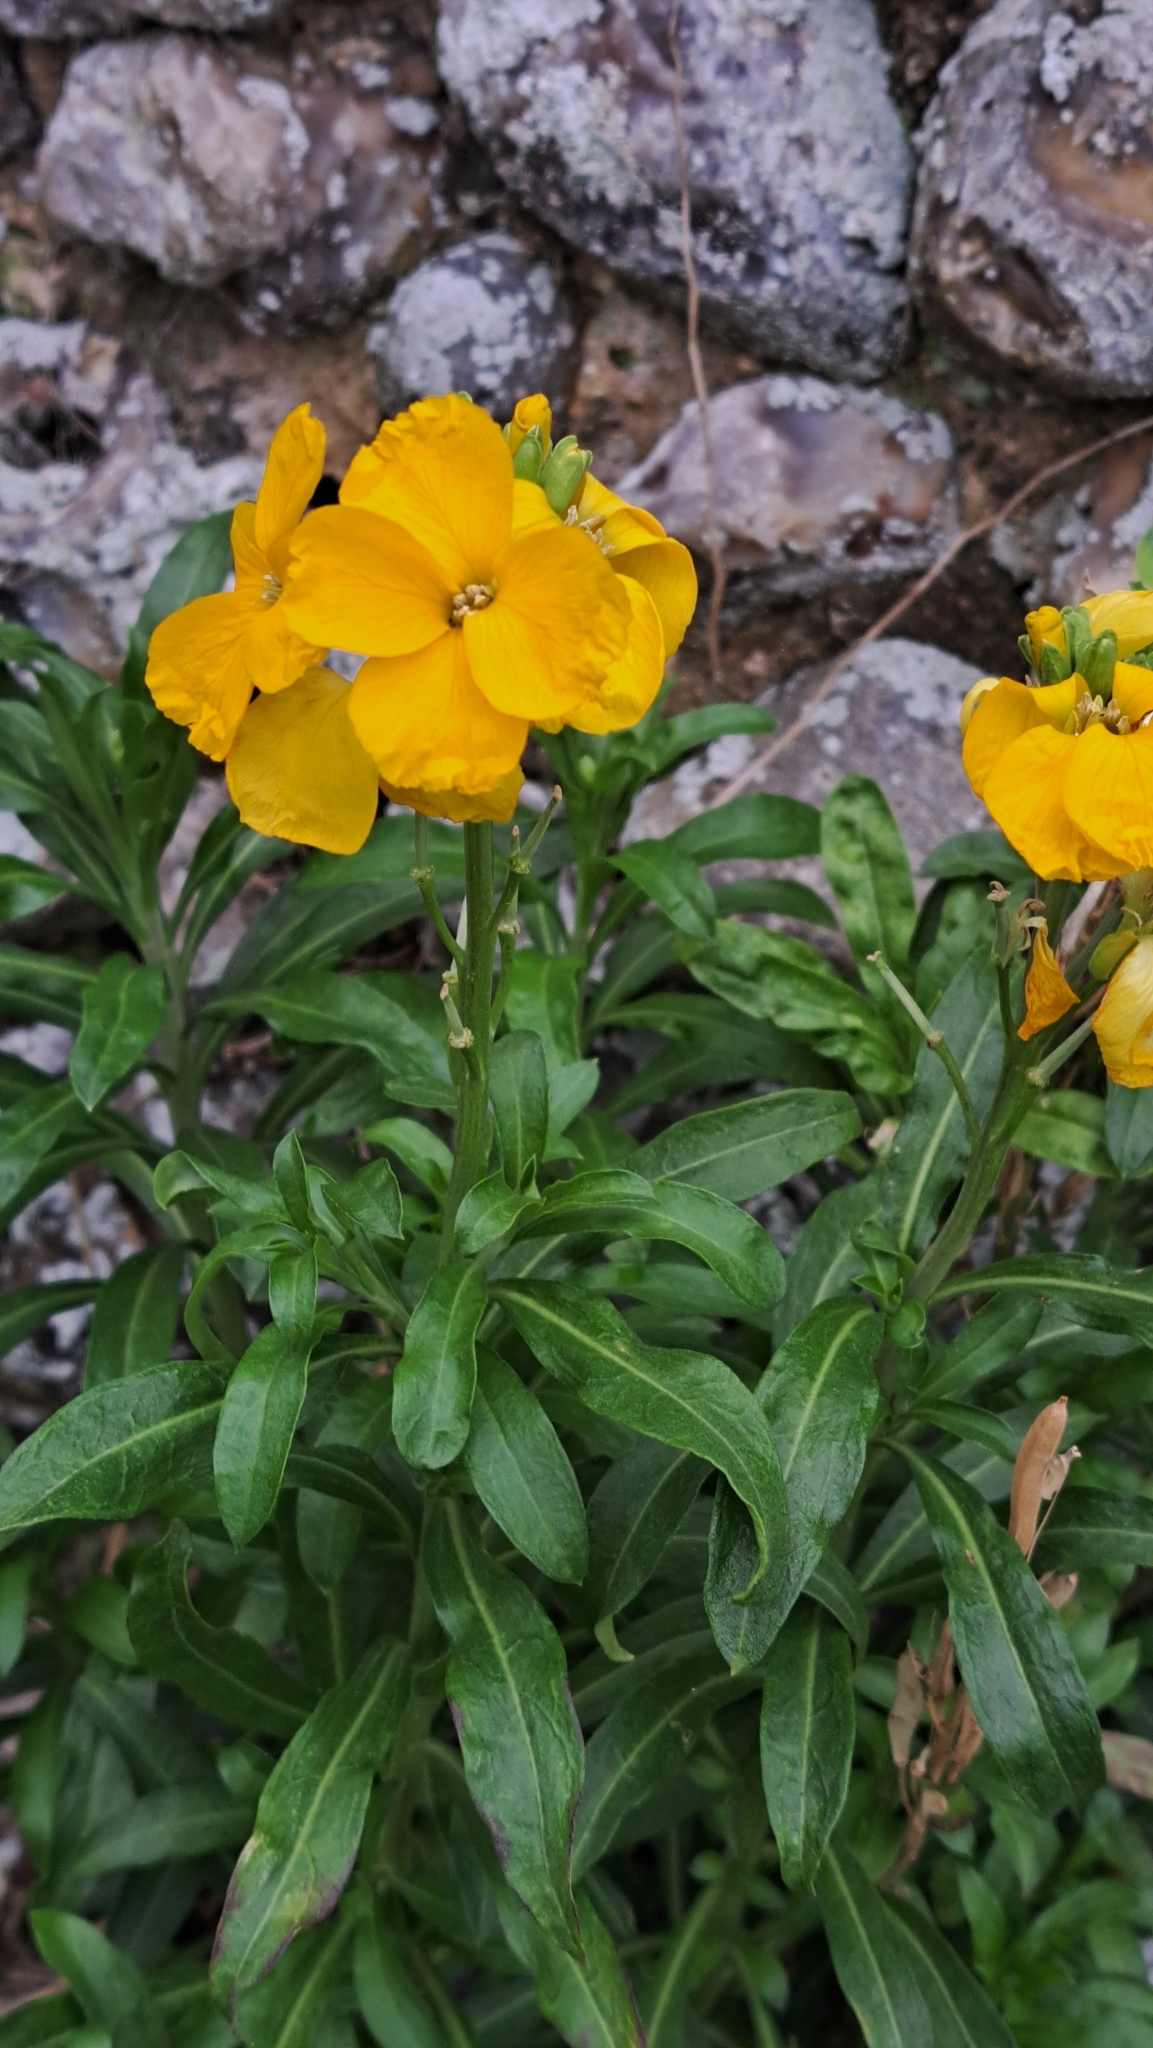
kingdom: Plantae
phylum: Tracheophyta
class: Magnoliopsida
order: Brassicales
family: Brassicaceae
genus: Erysimum
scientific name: Erysimum cheiri
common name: Wallflower
